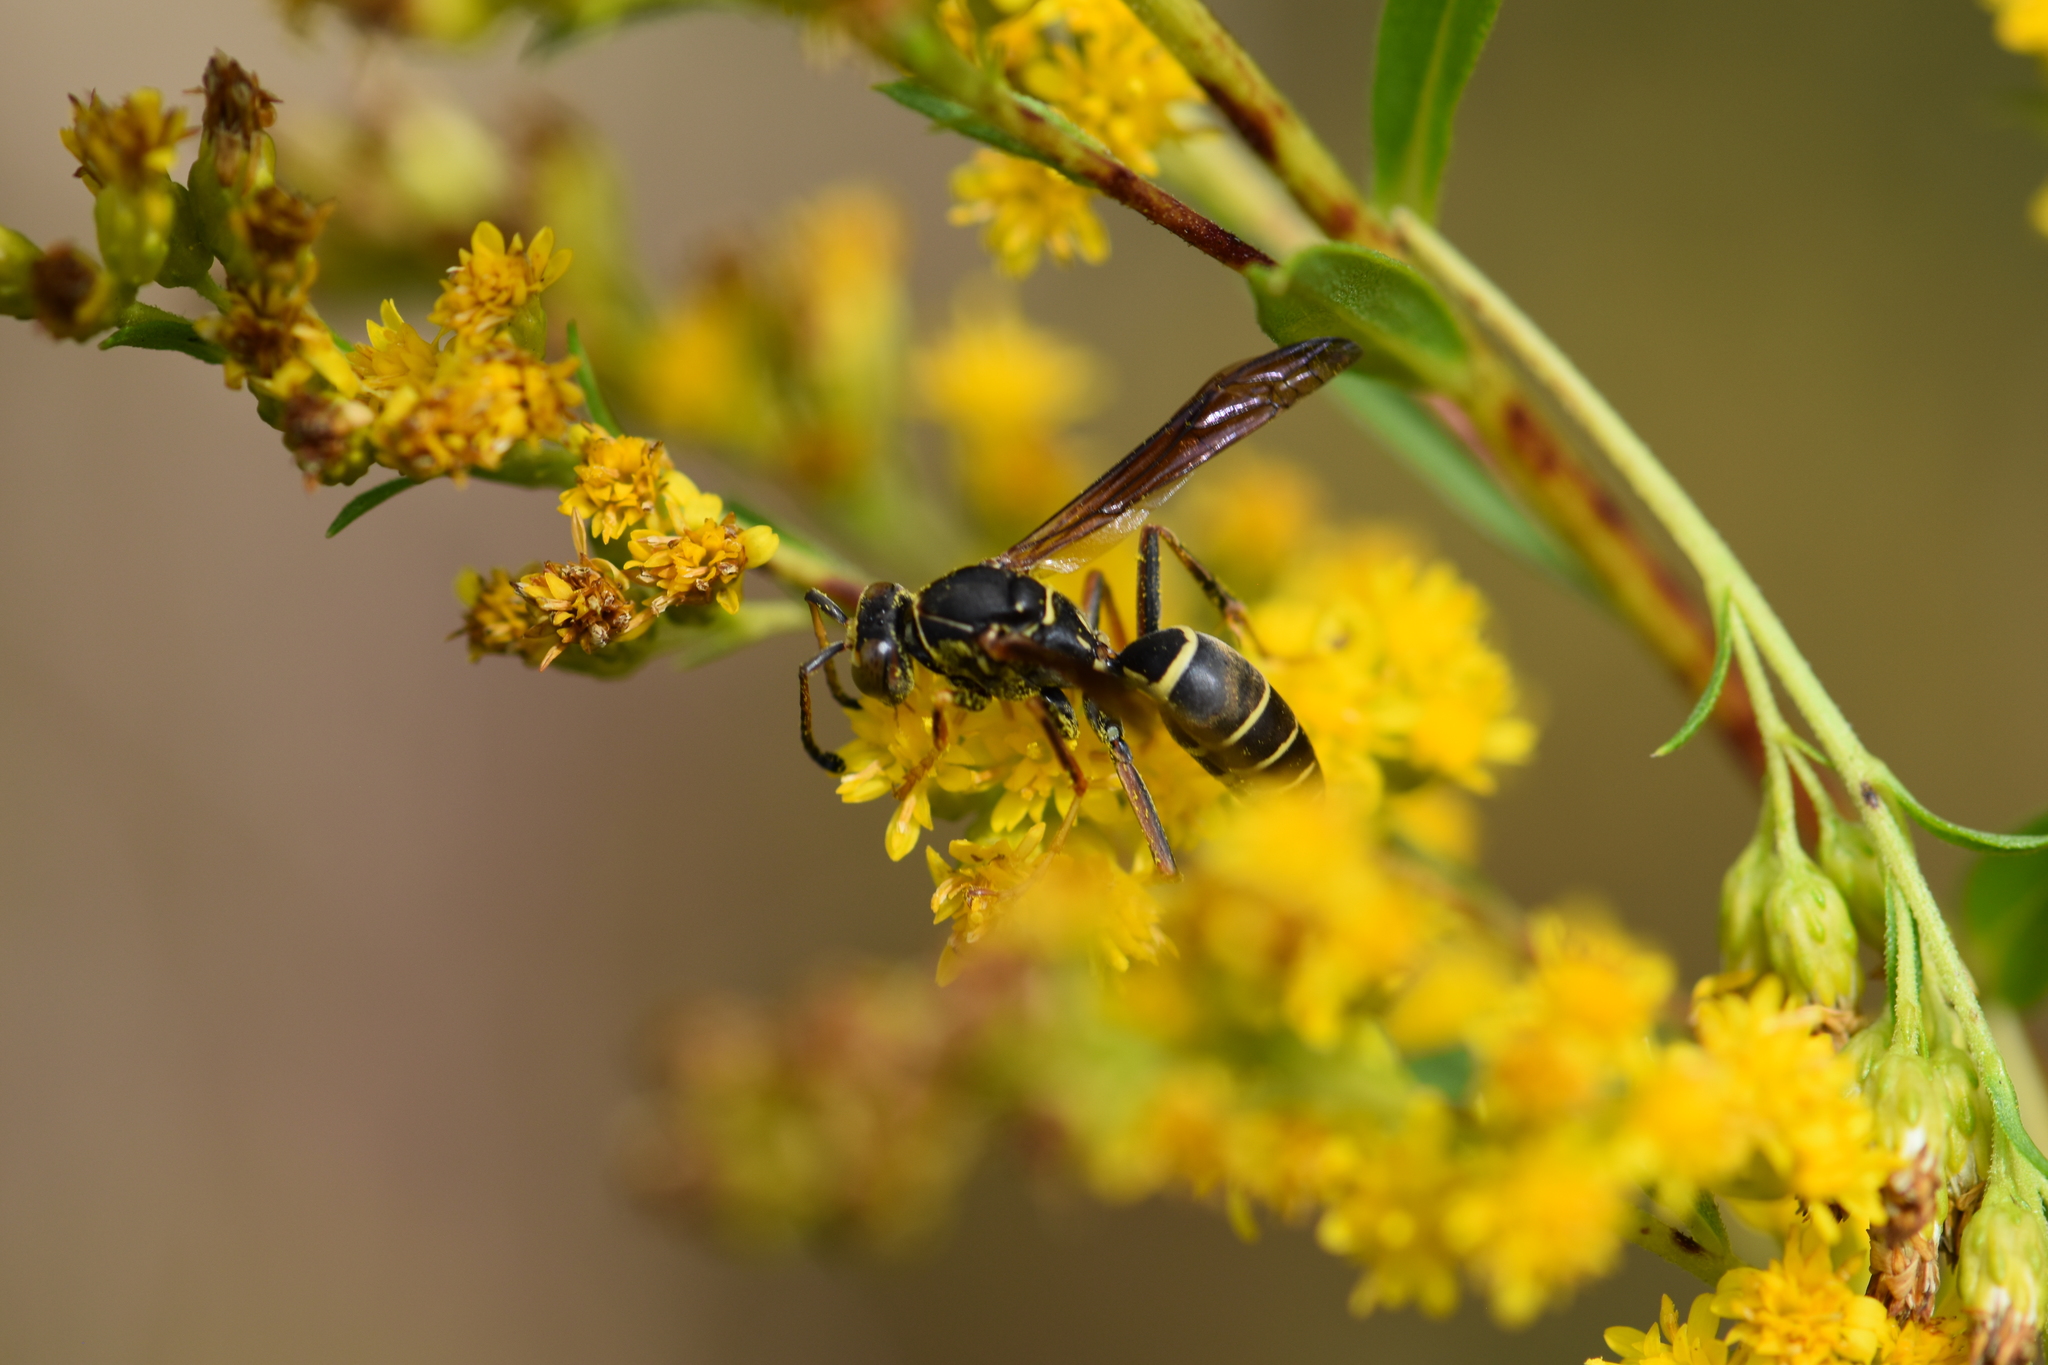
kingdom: Animalia
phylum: Arthropoda
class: Insecta
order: Hymenoptera
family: Eumenidae
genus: Polistes
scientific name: Polistes fuscatus
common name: Dark paper wasp
